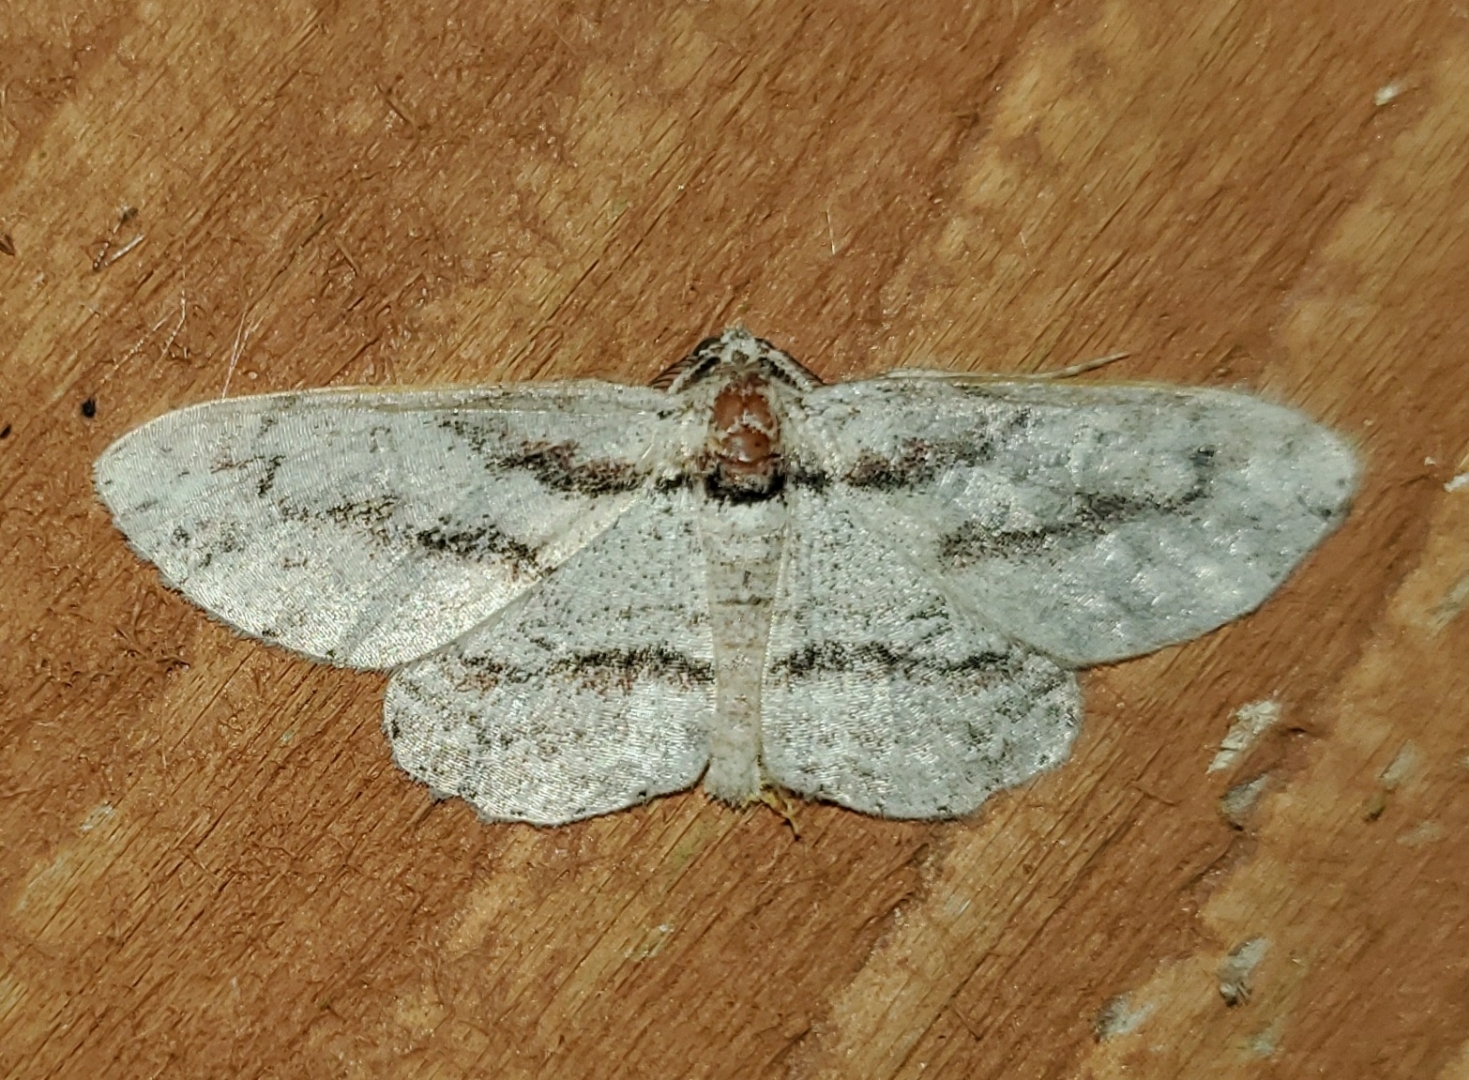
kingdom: Animalia
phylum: Arthropoda
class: Insecta
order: Lepidoptera
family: Geometridae
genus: Iridopsis
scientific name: Iridopsis pergracilis
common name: Cypress looper
